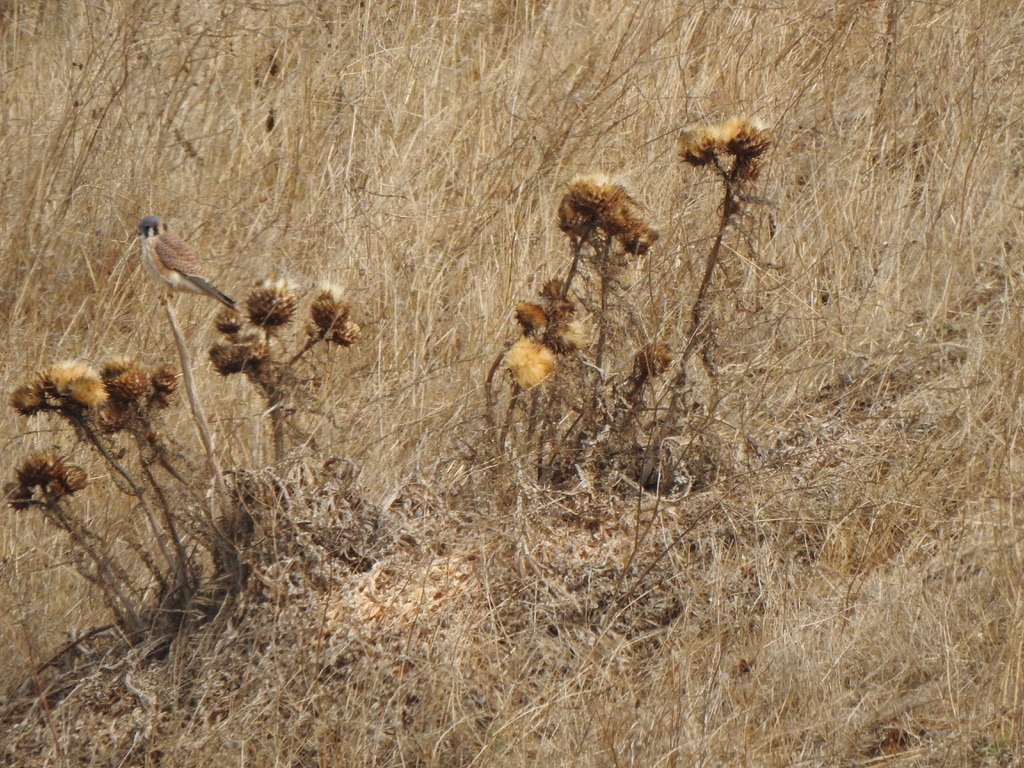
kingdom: Animalia
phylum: Chordata
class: Aves
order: Falconiformes
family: Falconidae
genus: Falco
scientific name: Falco sparverius
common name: American kestrel
